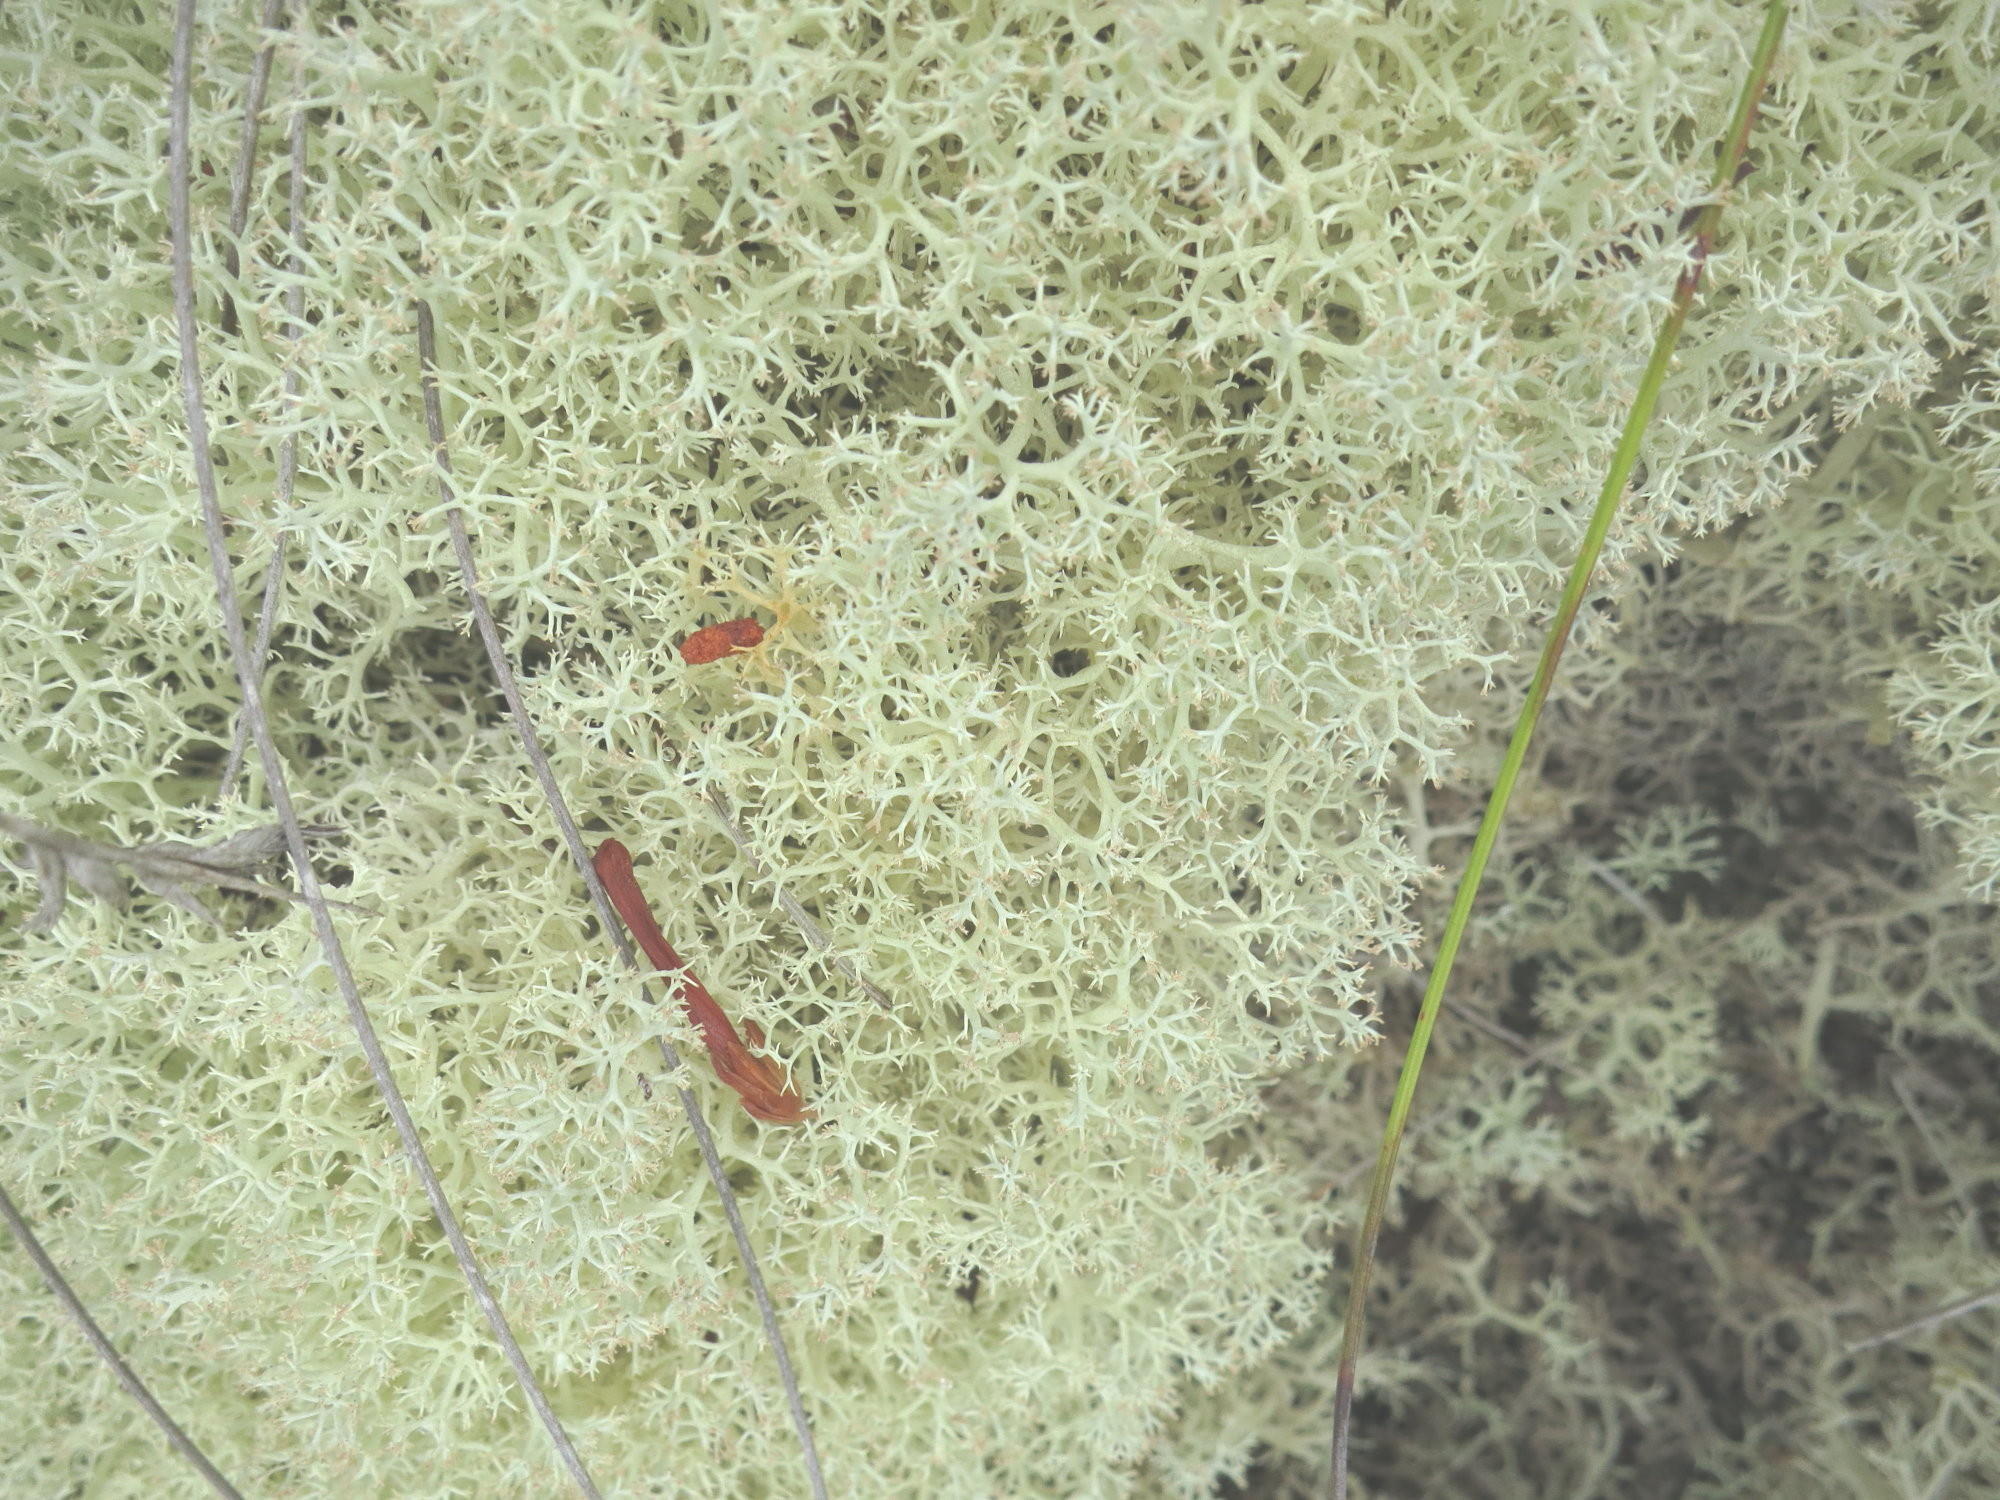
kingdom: Fungi
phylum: Ascomycota
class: Lecanoromycetes
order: Lecanorales
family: Cladoniaceae
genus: Cladonia
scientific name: Cladonia confusa
